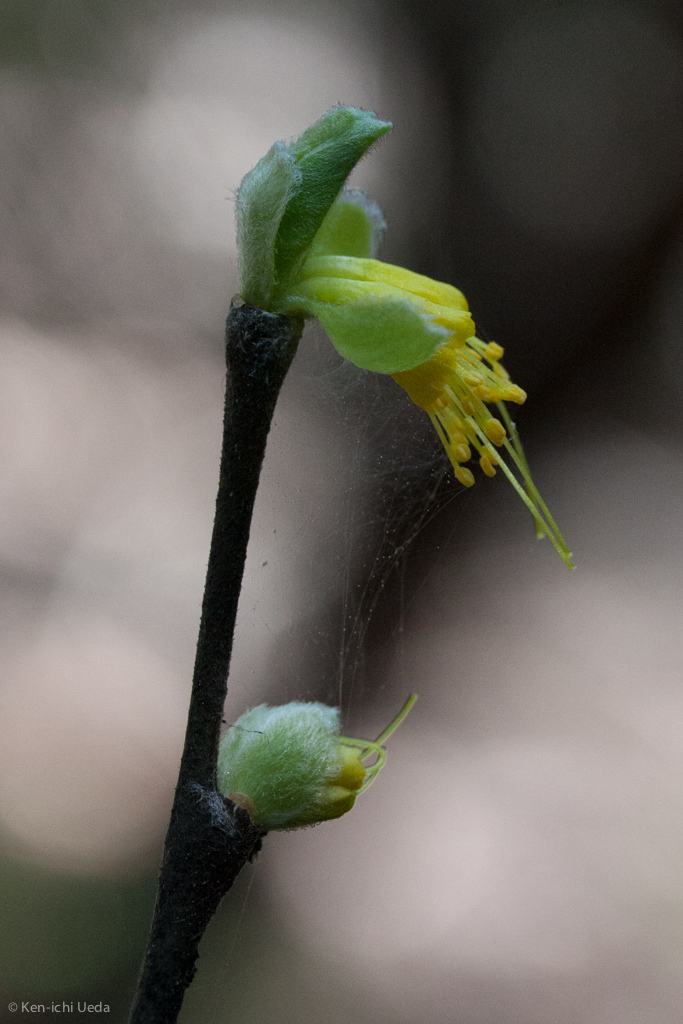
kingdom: Plantae
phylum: Tracheophyta
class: Magnoliopsida
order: Malvales
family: Thymelaeaceae
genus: Dirca
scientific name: Dirca occidentalis
